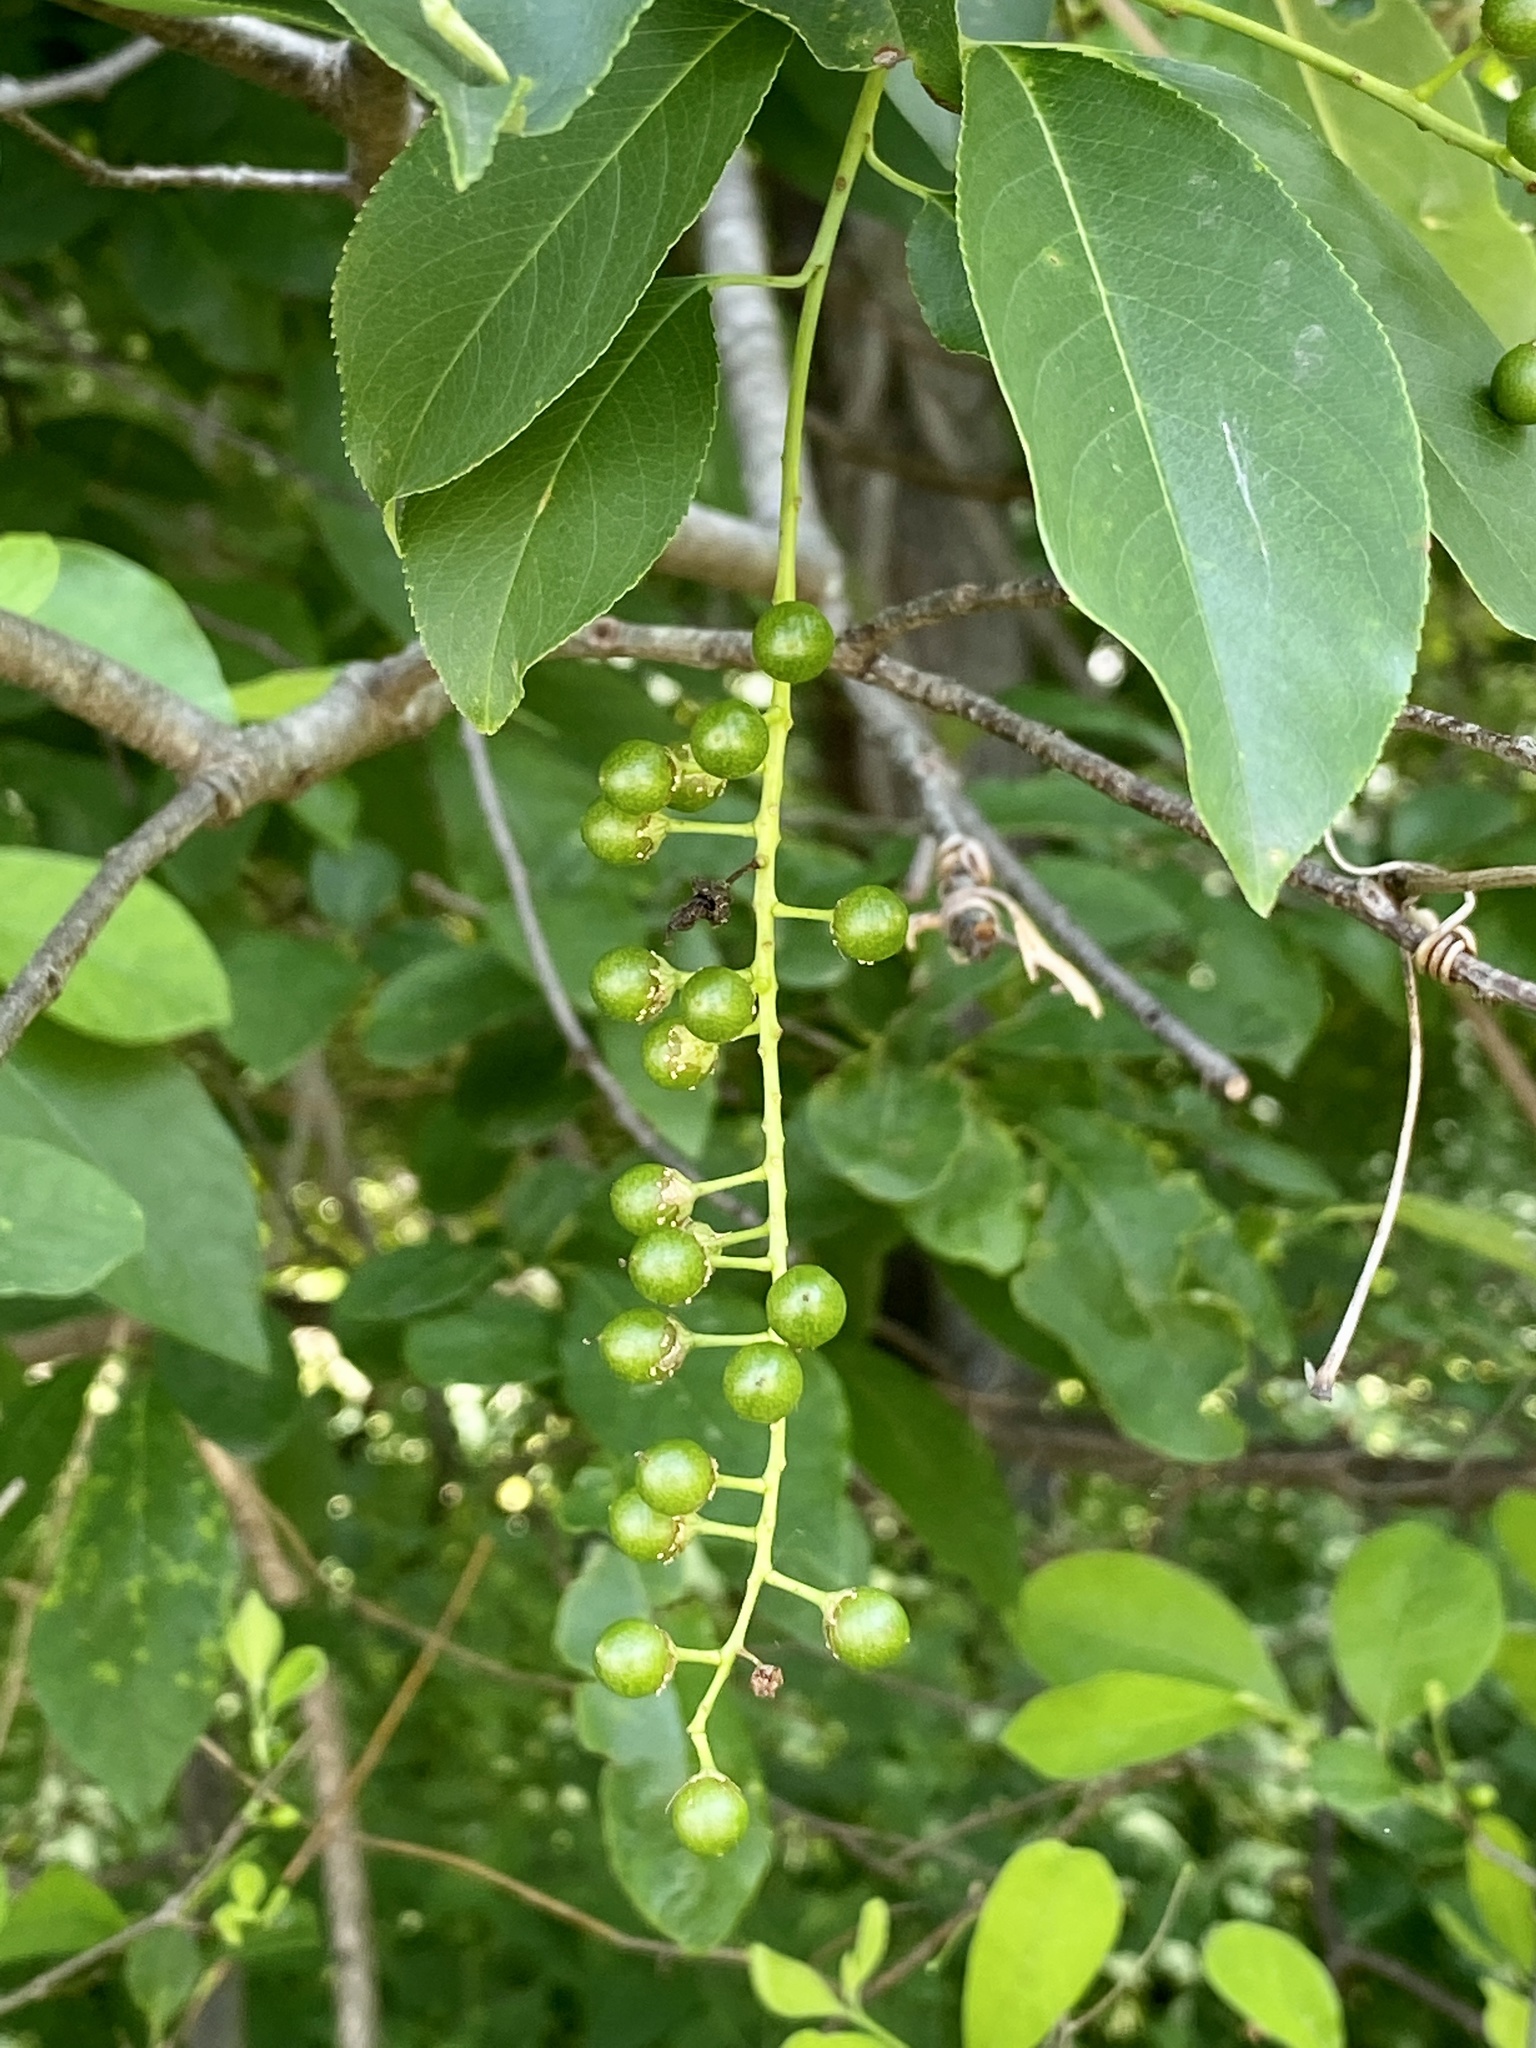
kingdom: Plantae
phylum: Tracheophyta
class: Magnoliopsida
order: Rosales
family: Rosaceae
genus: Prunus
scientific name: Prunus serotina
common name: Black cherry
